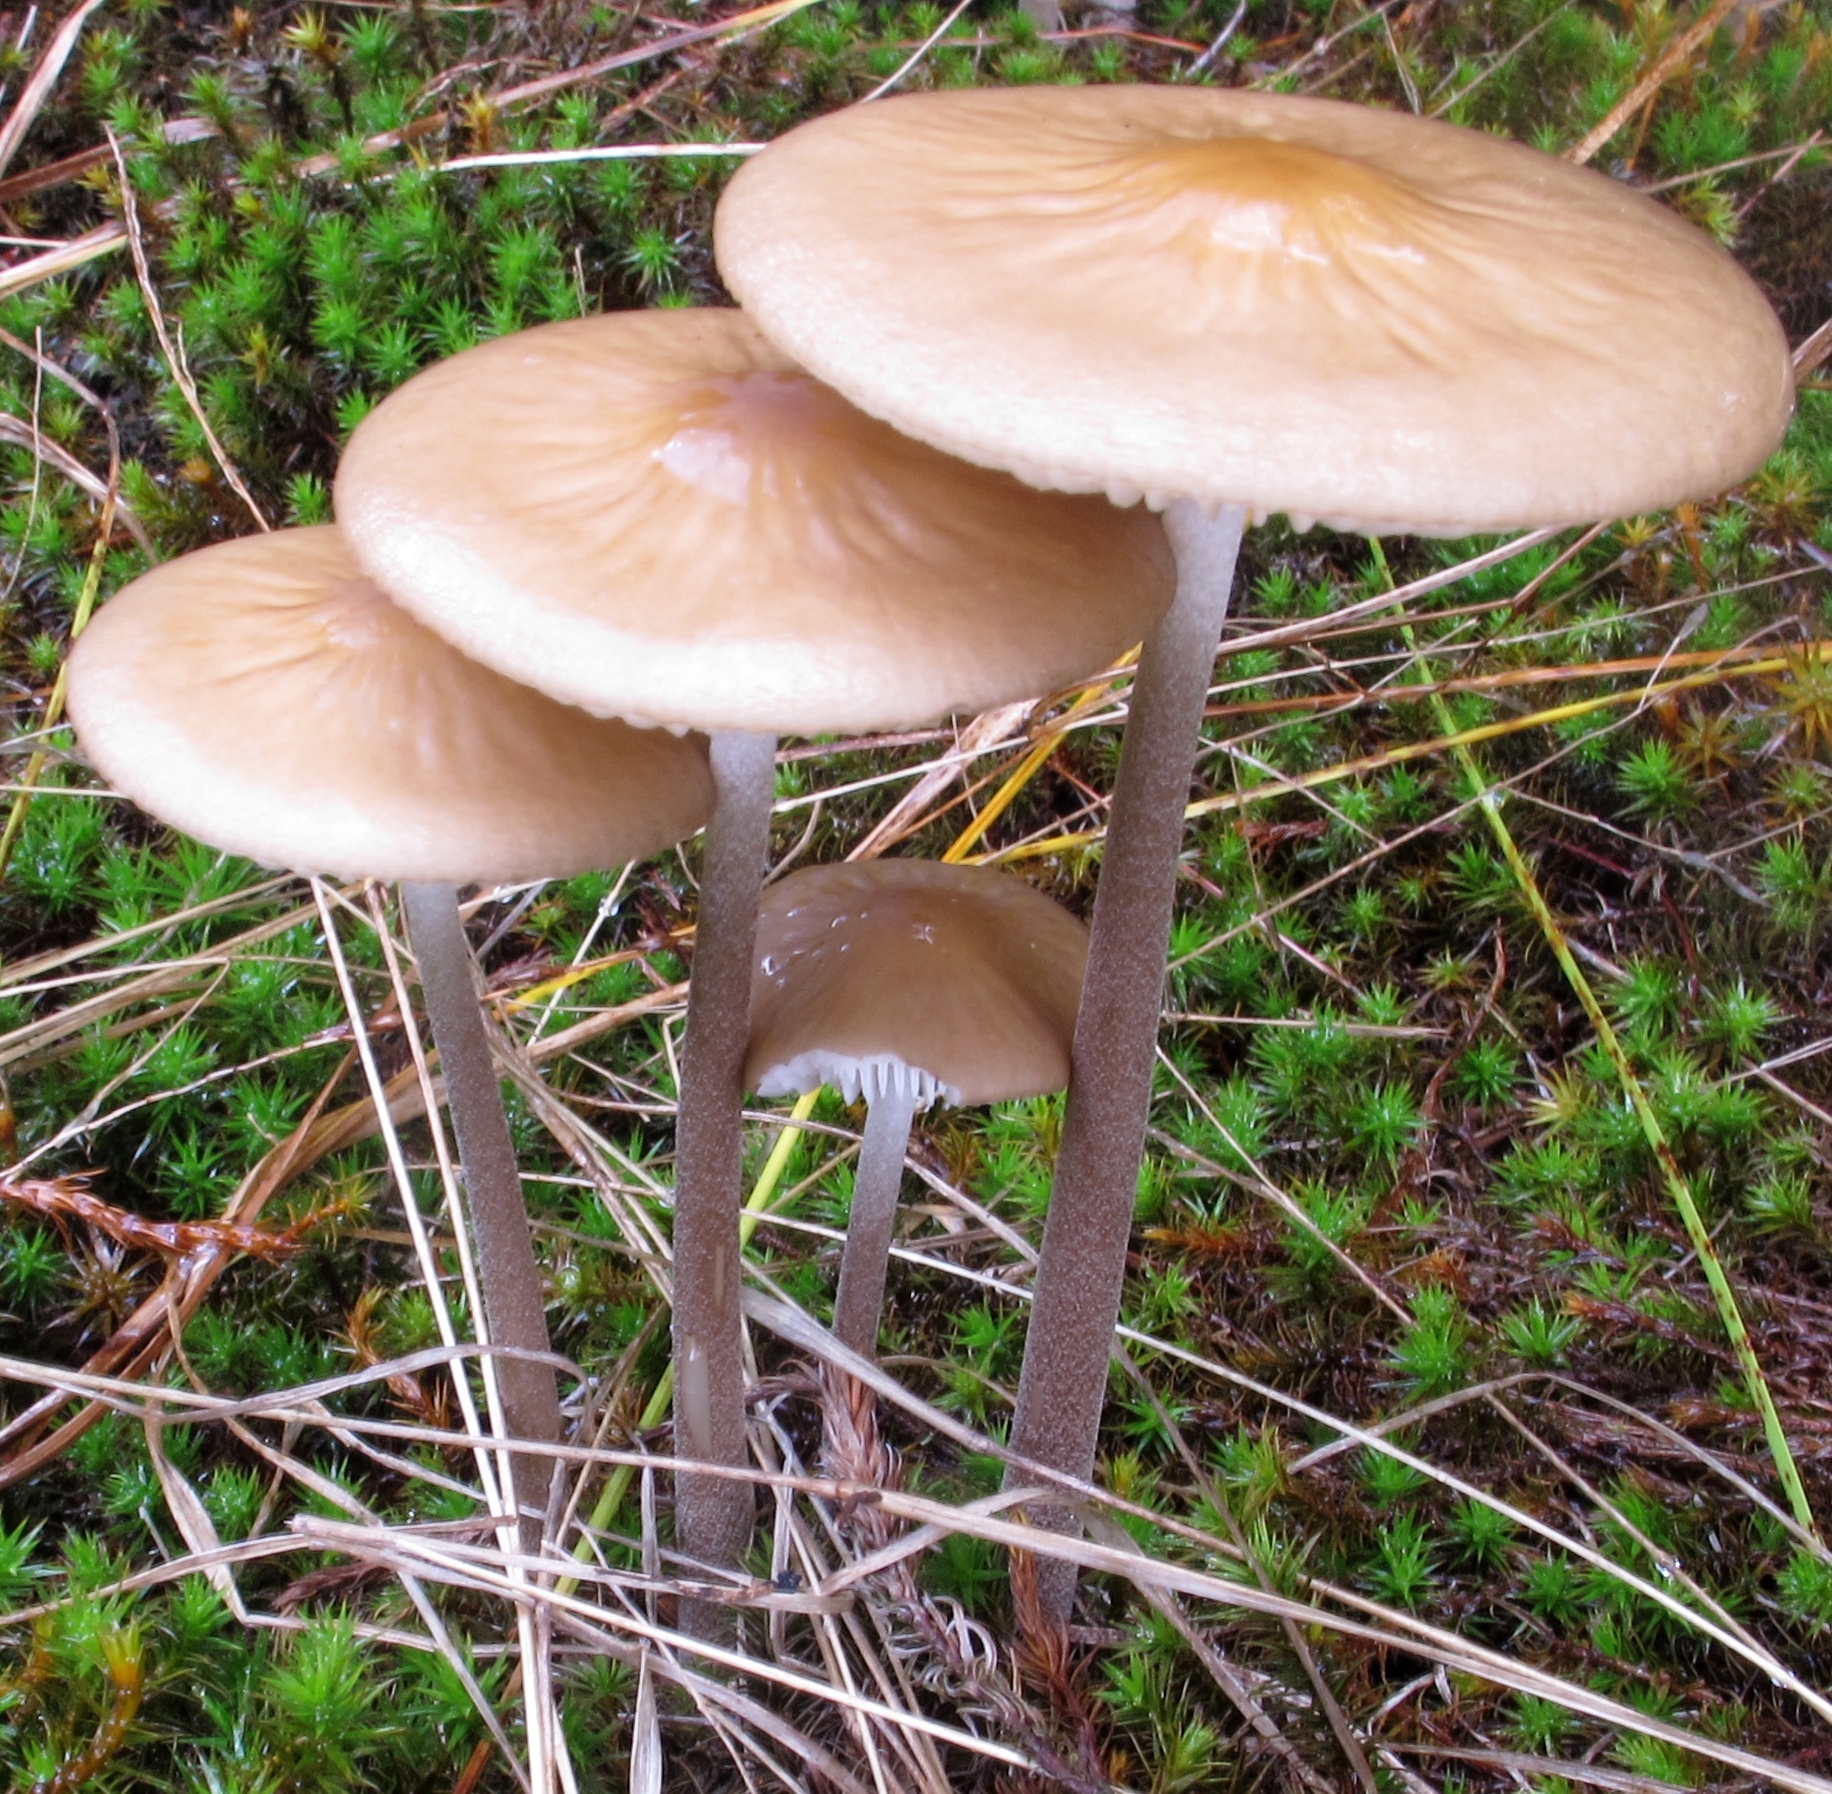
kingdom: Fungi
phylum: Basidiomycota
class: Agaricomycetes
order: Agaricales
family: Physalacriaceae
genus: Hymenopellis
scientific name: Hymenopellis megalospora
